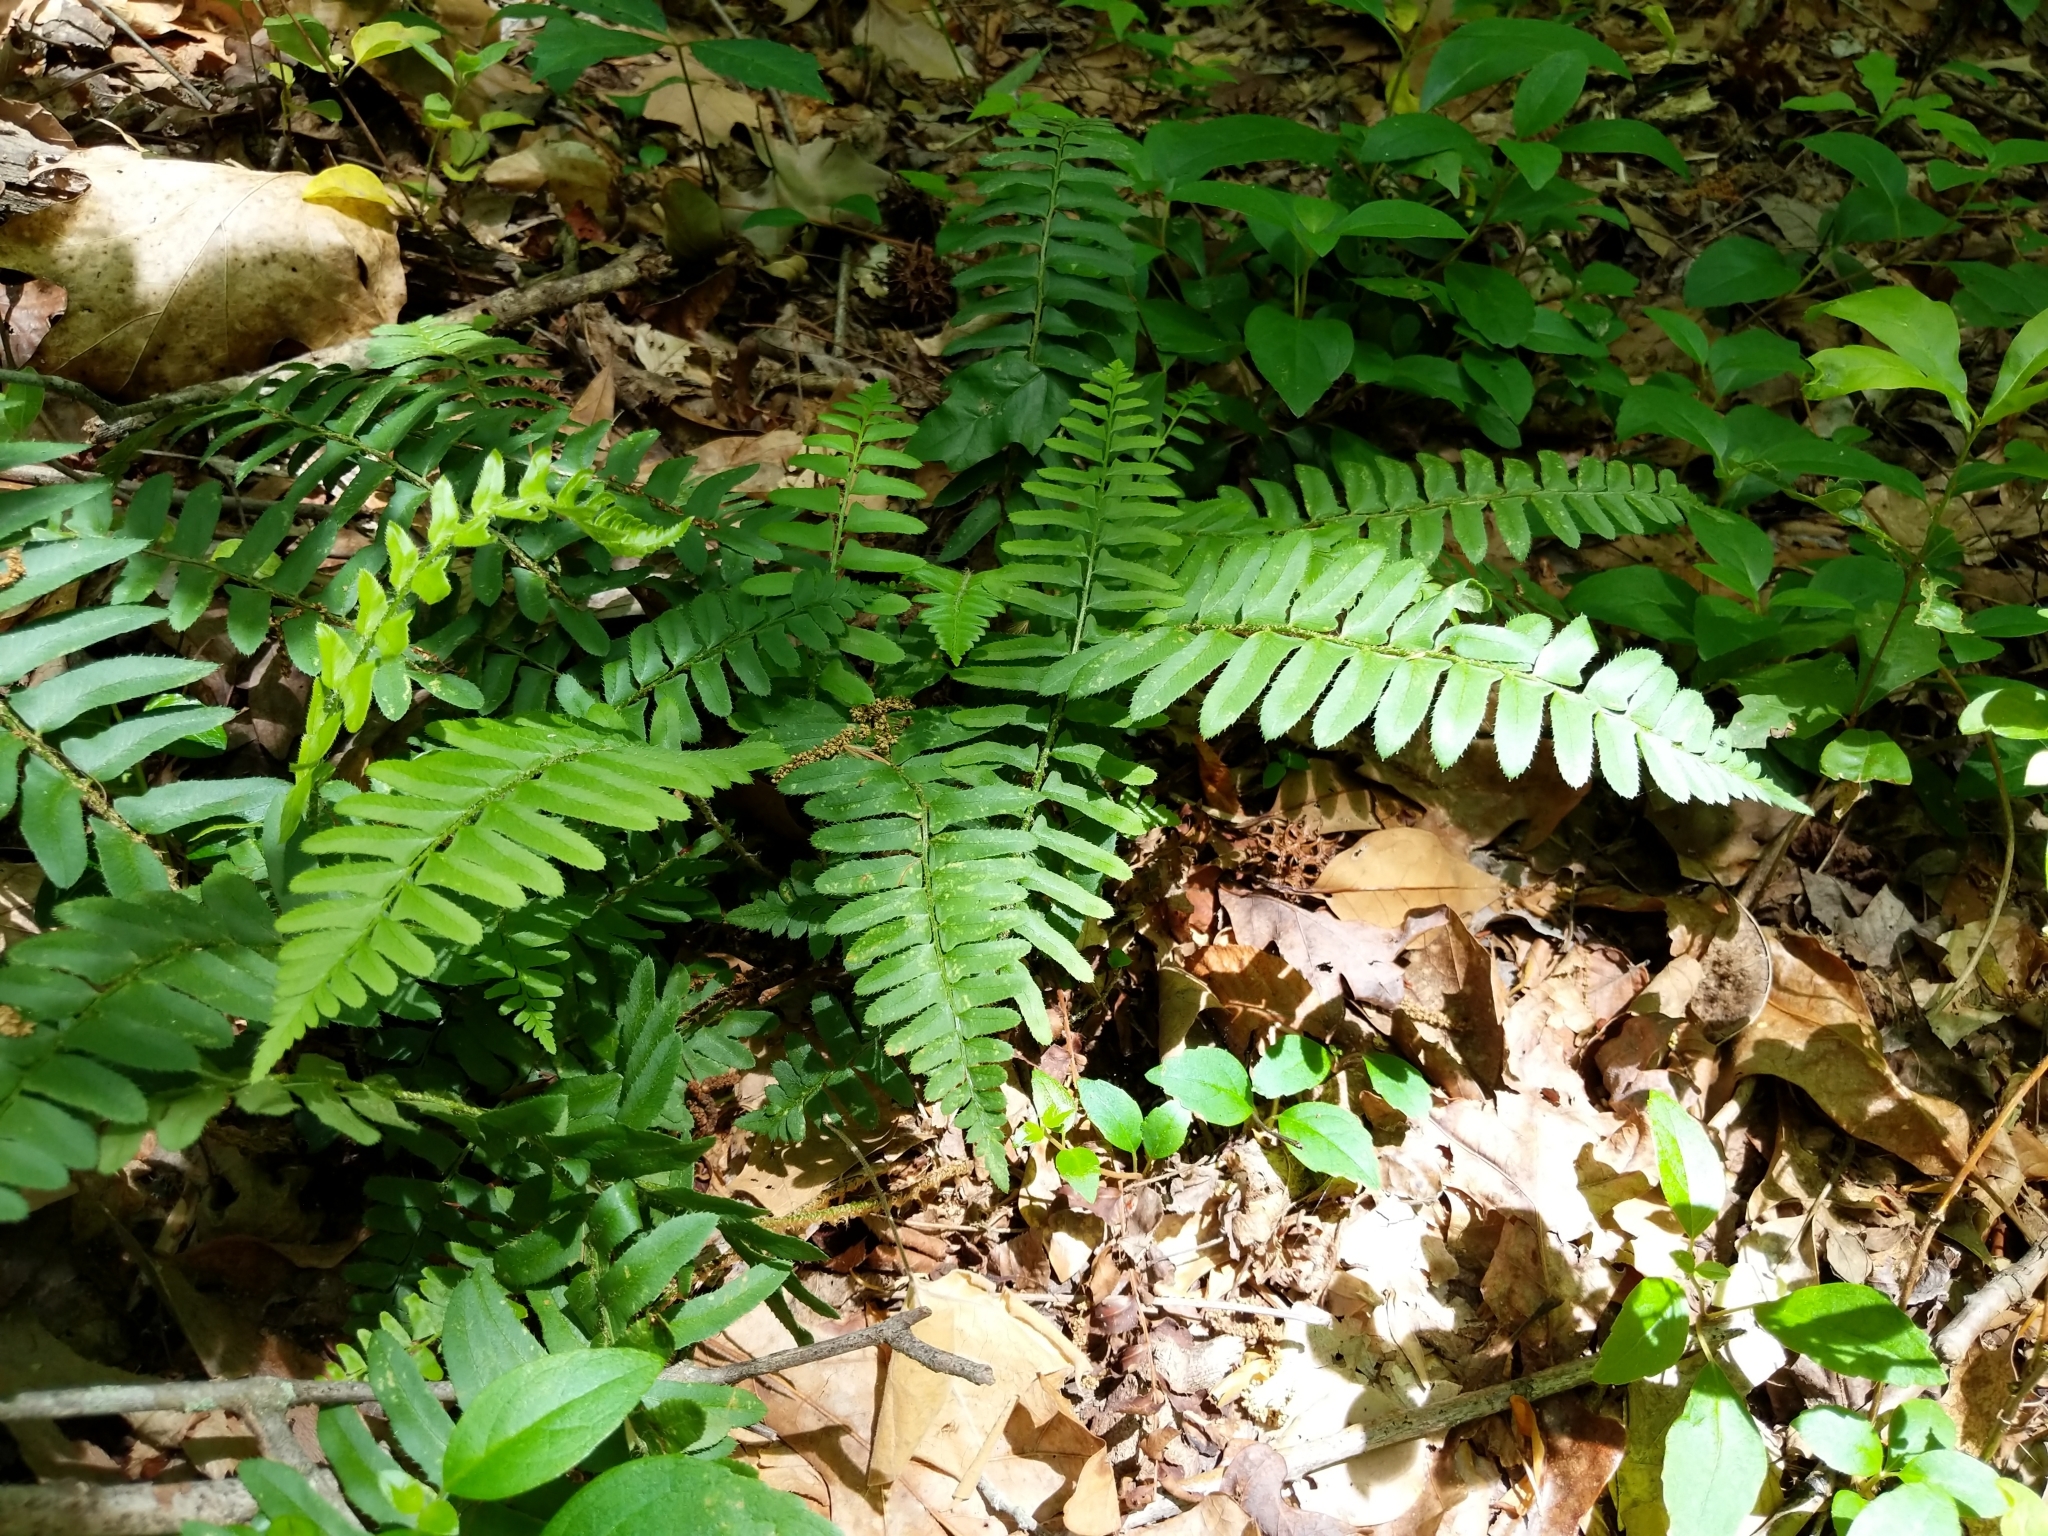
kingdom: Plantae
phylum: Tracheophyta
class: Polypodiopsida
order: Polypodiales
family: Dryopteridaceae
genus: Polystichum
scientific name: Polystichum acrostichoides
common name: Christmas fern
